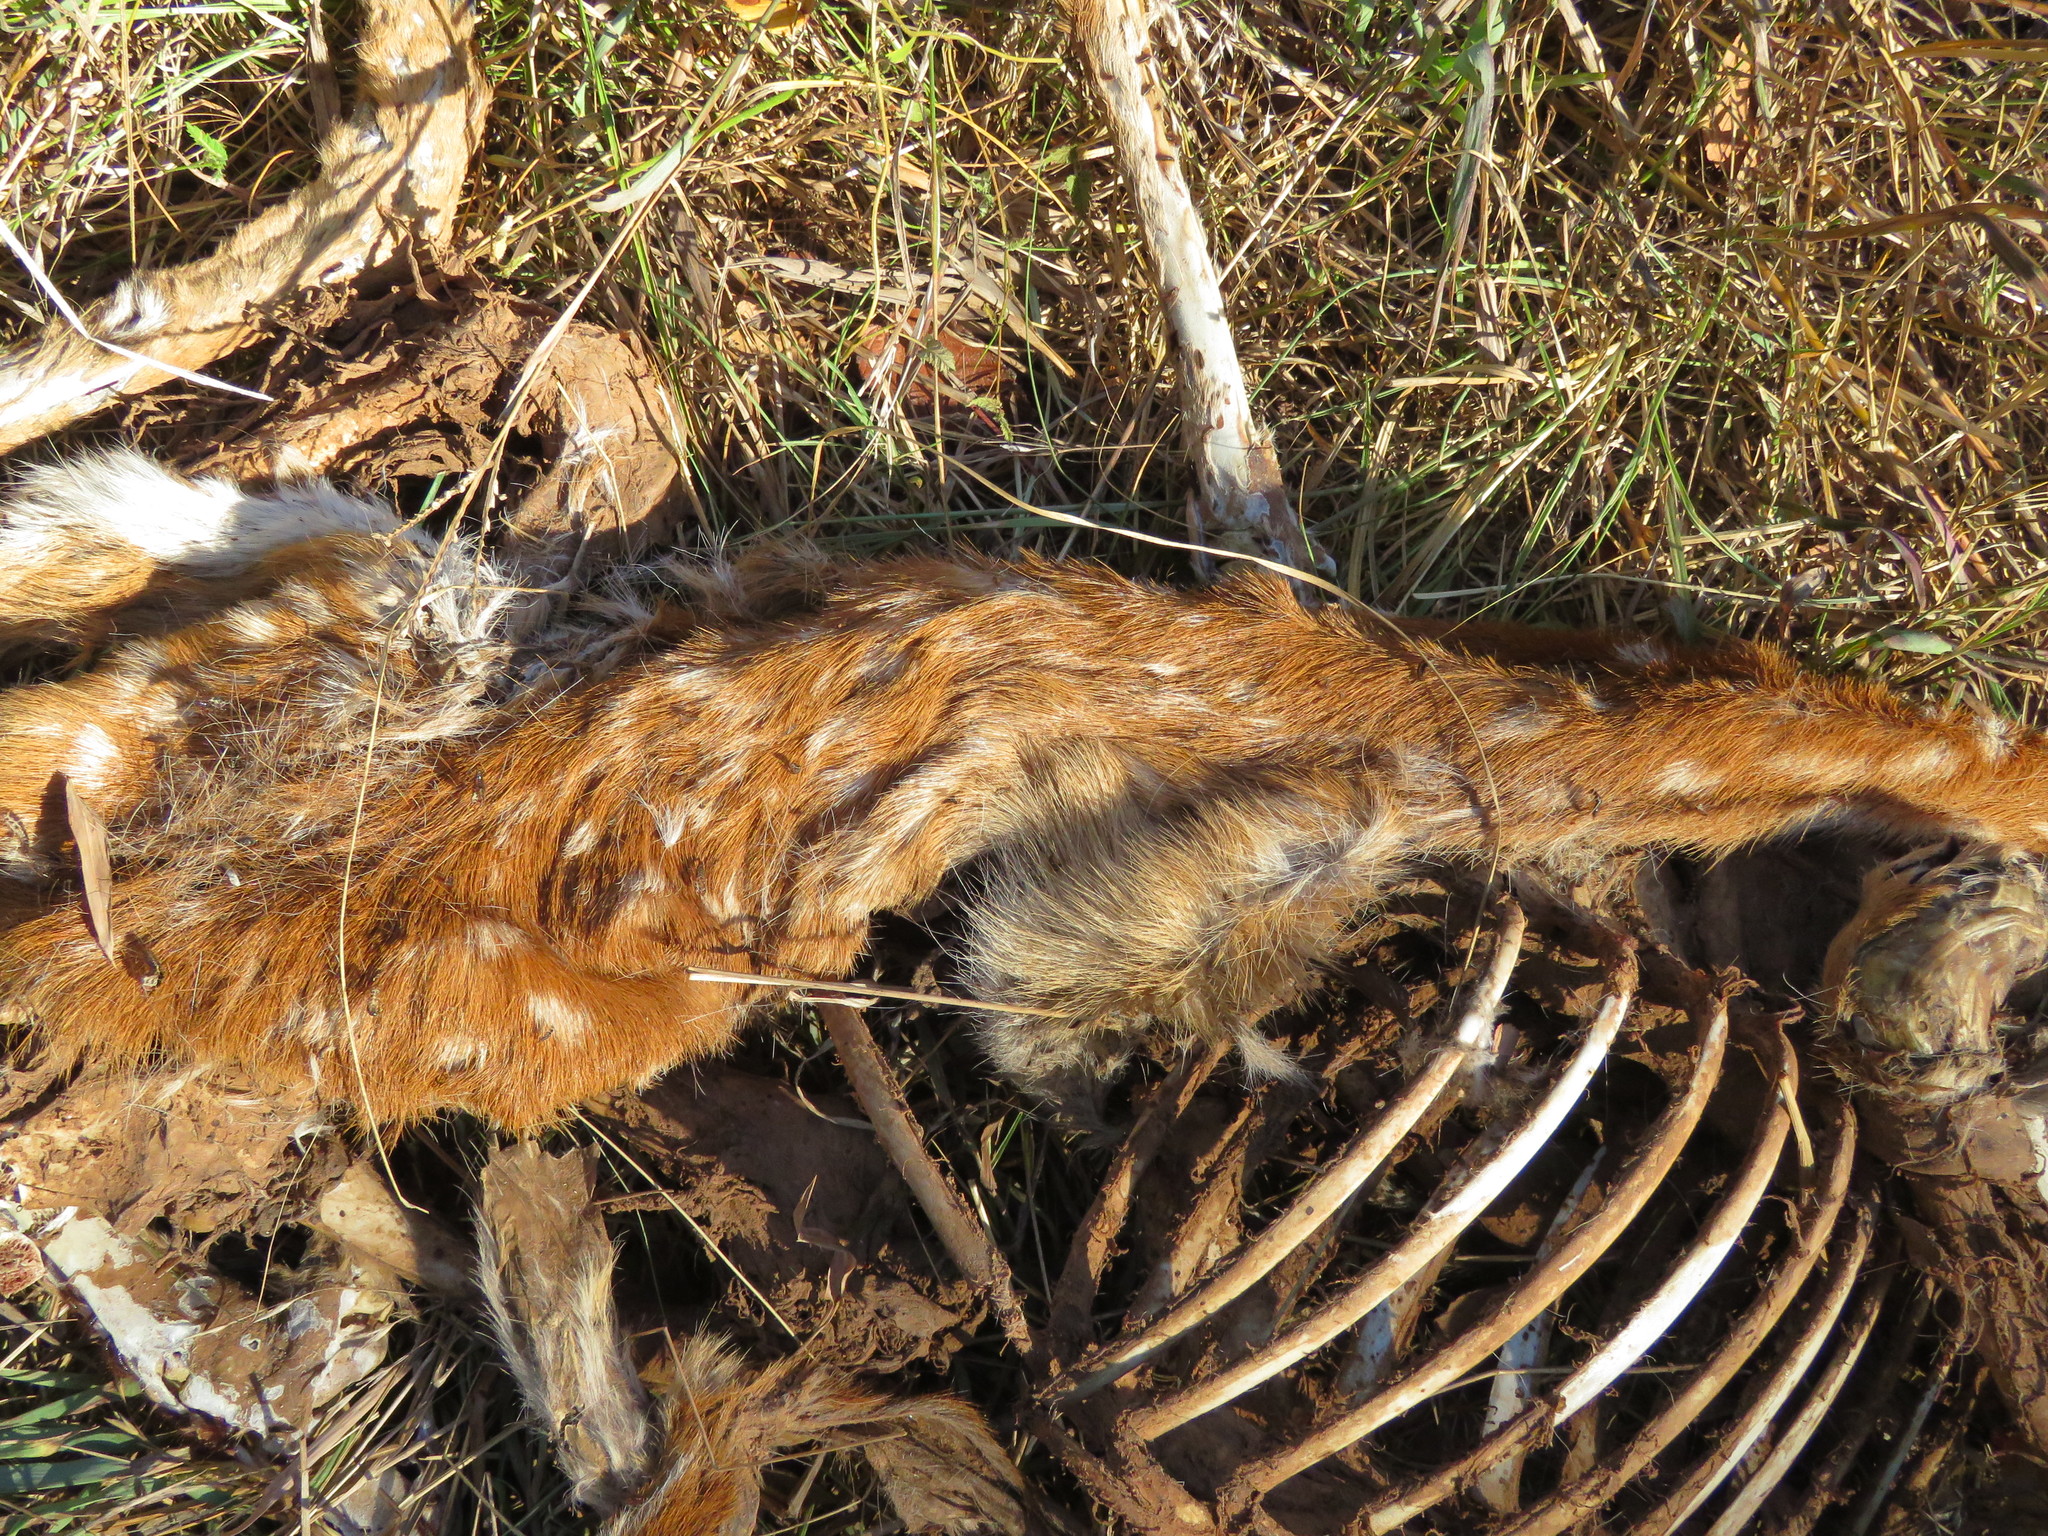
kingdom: Animalia
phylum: Chordata
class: Mammalia
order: Artiodactyla
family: Cervidae
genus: Odocoileus
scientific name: Odocoileus virginianus
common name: White-tailed deer
